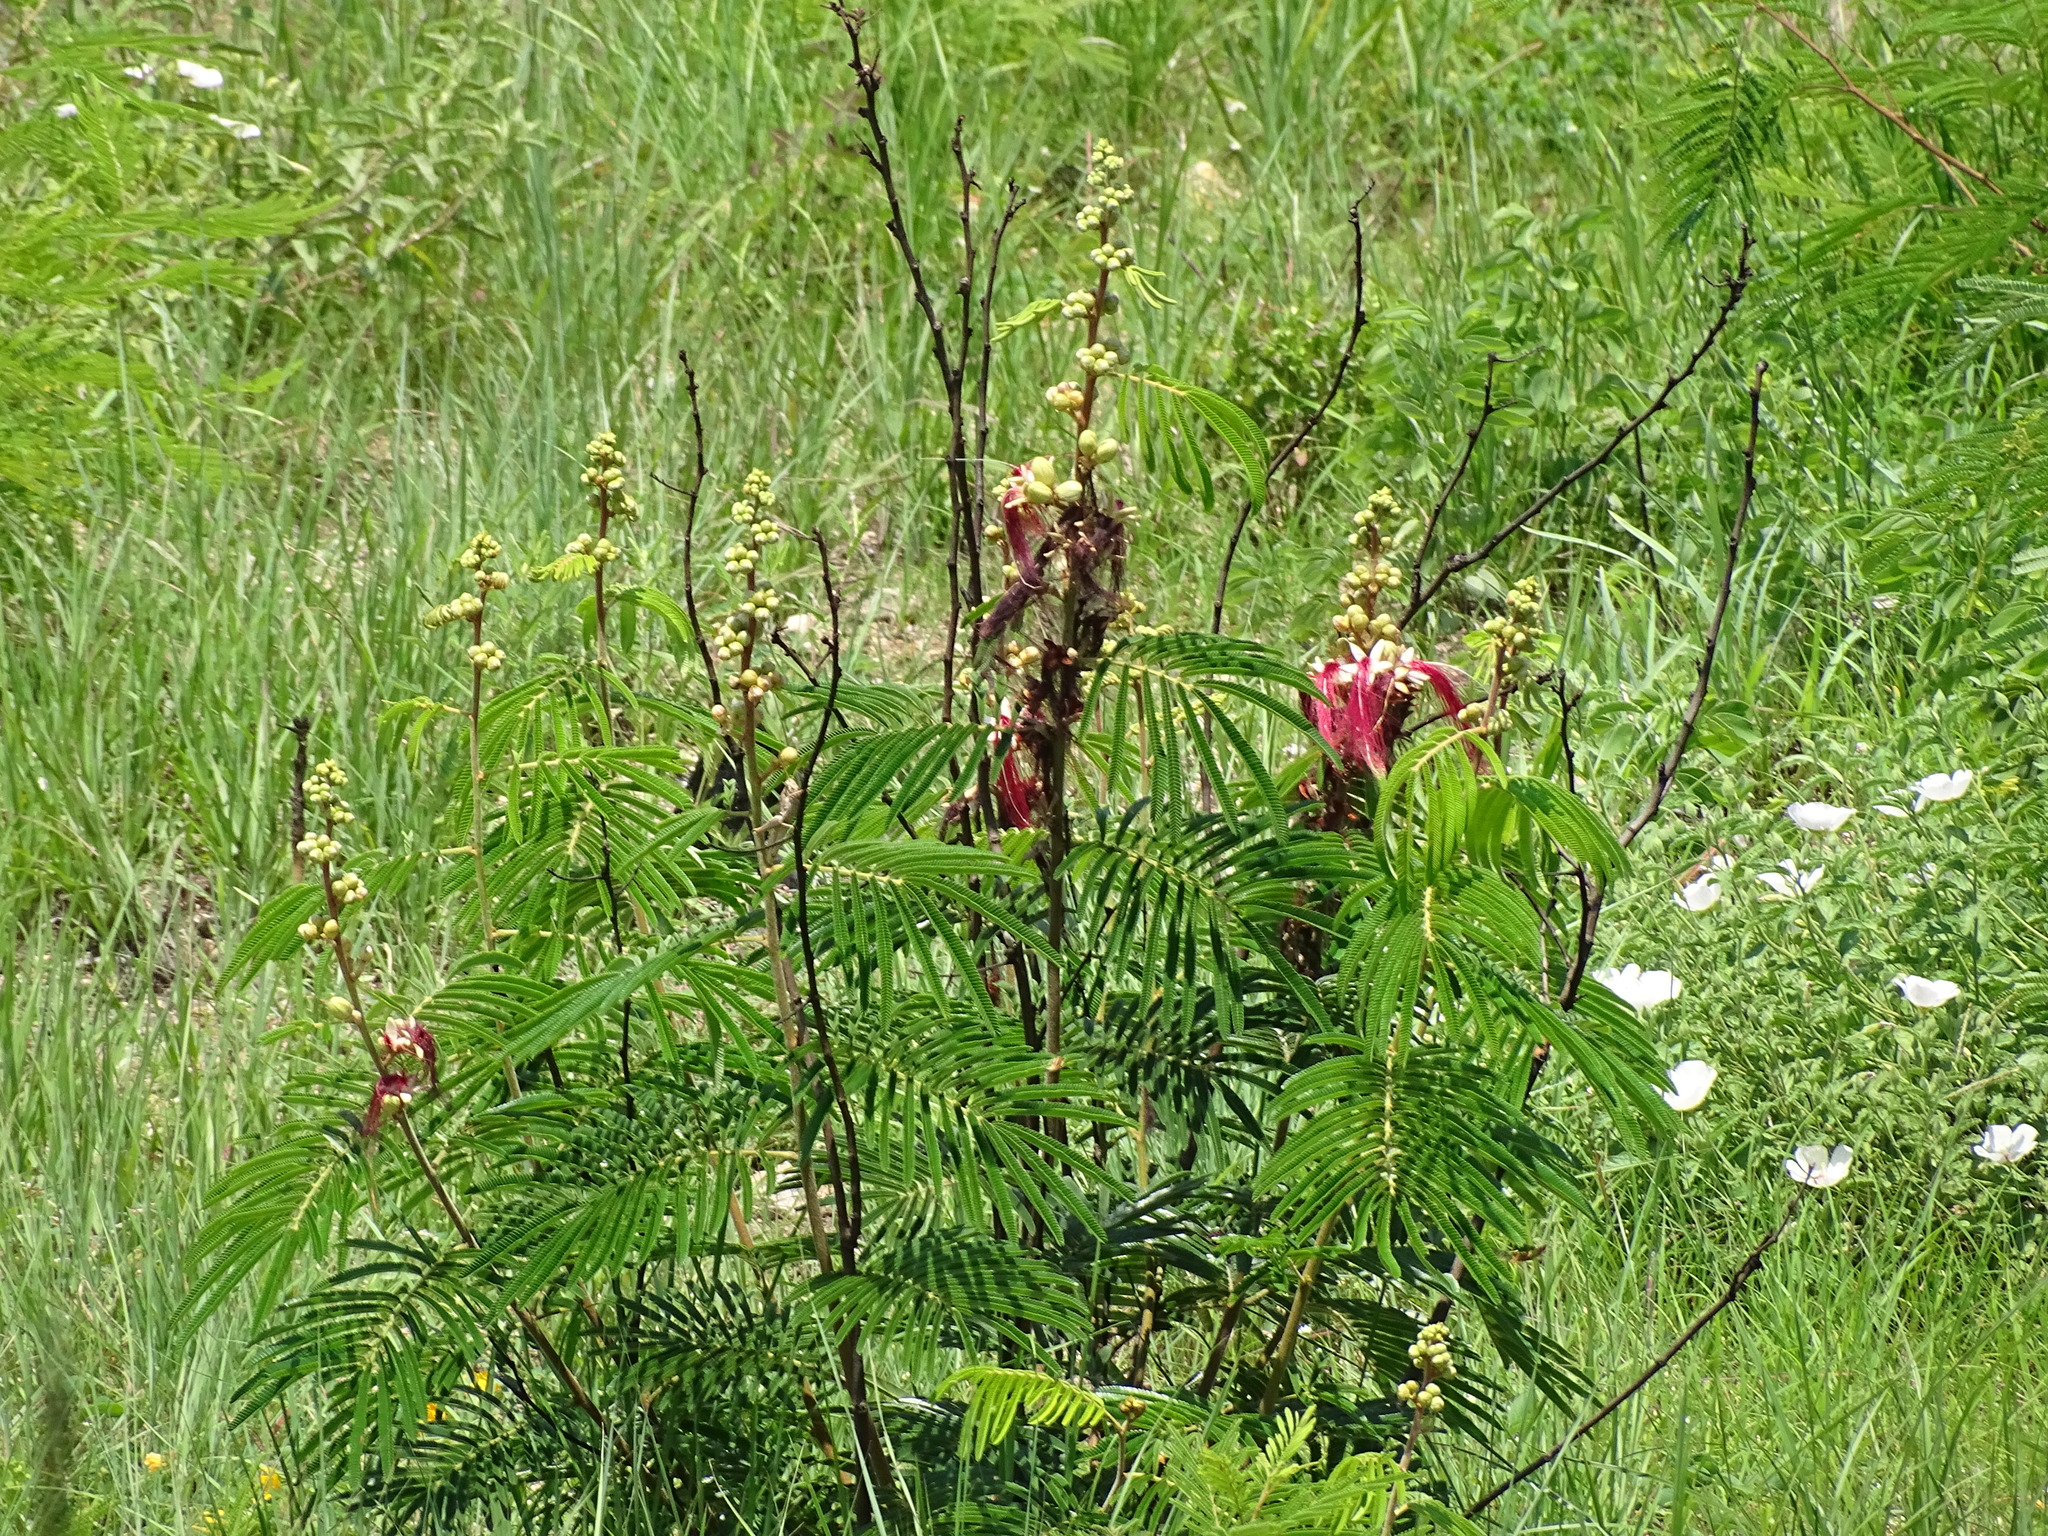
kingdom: Plantae
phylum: Tracheophyta
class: Magnoliopsida
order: Fabales
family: Fabaceae
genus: Calliandra
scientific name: Calliandra houstoniana
